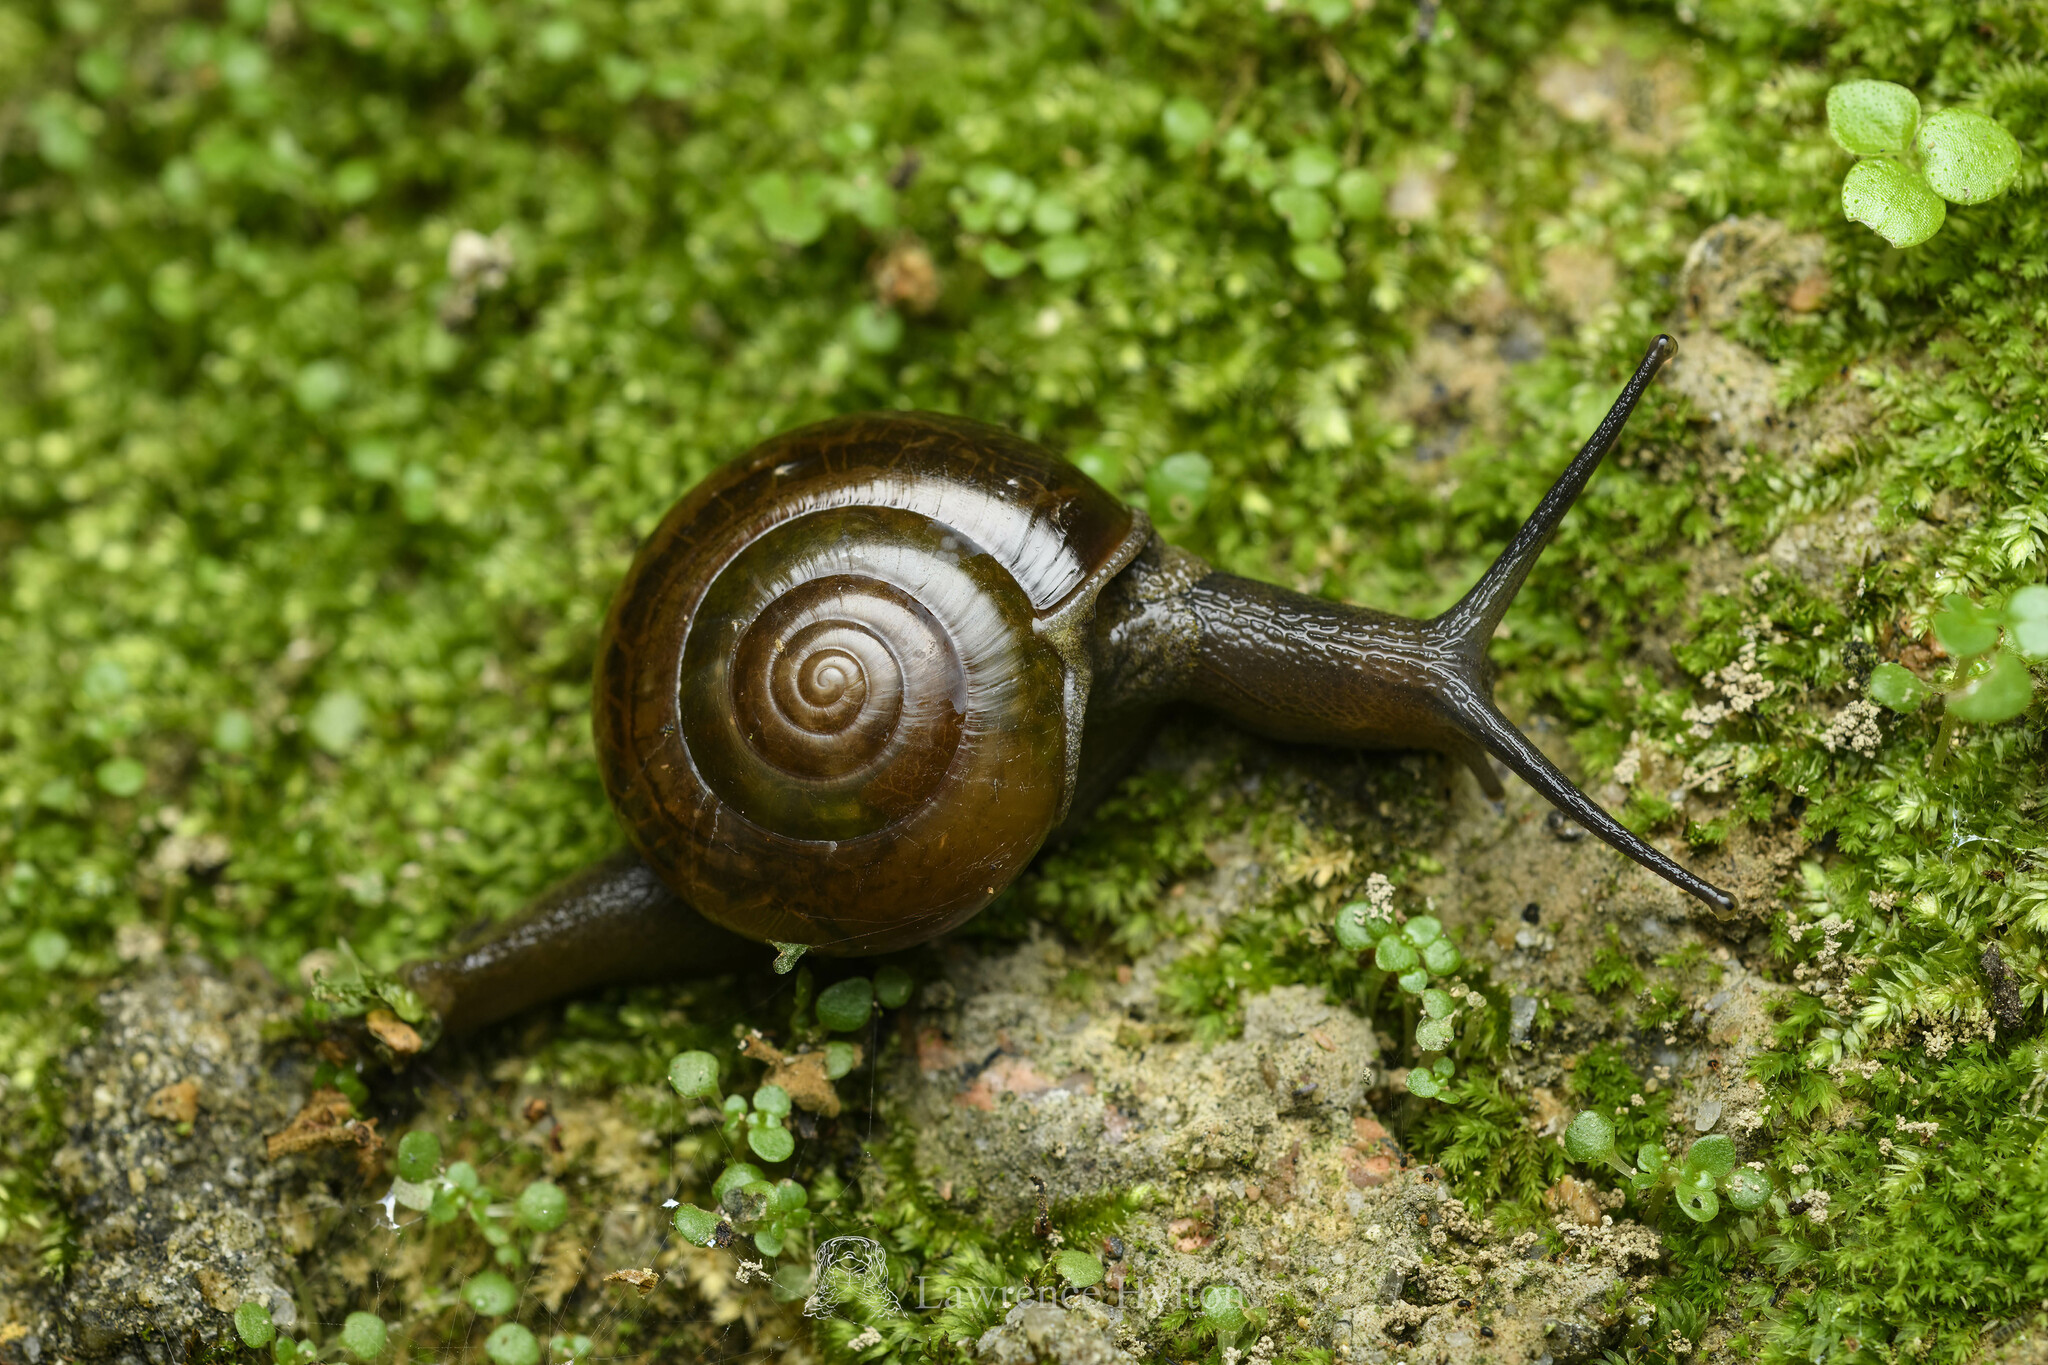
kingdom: Animalia
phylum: Mollusca
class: Gastropoda
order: Stylommatophora
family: Ariophantidae
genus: Macrochlamys
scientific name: Macrochlamys nitidissima
